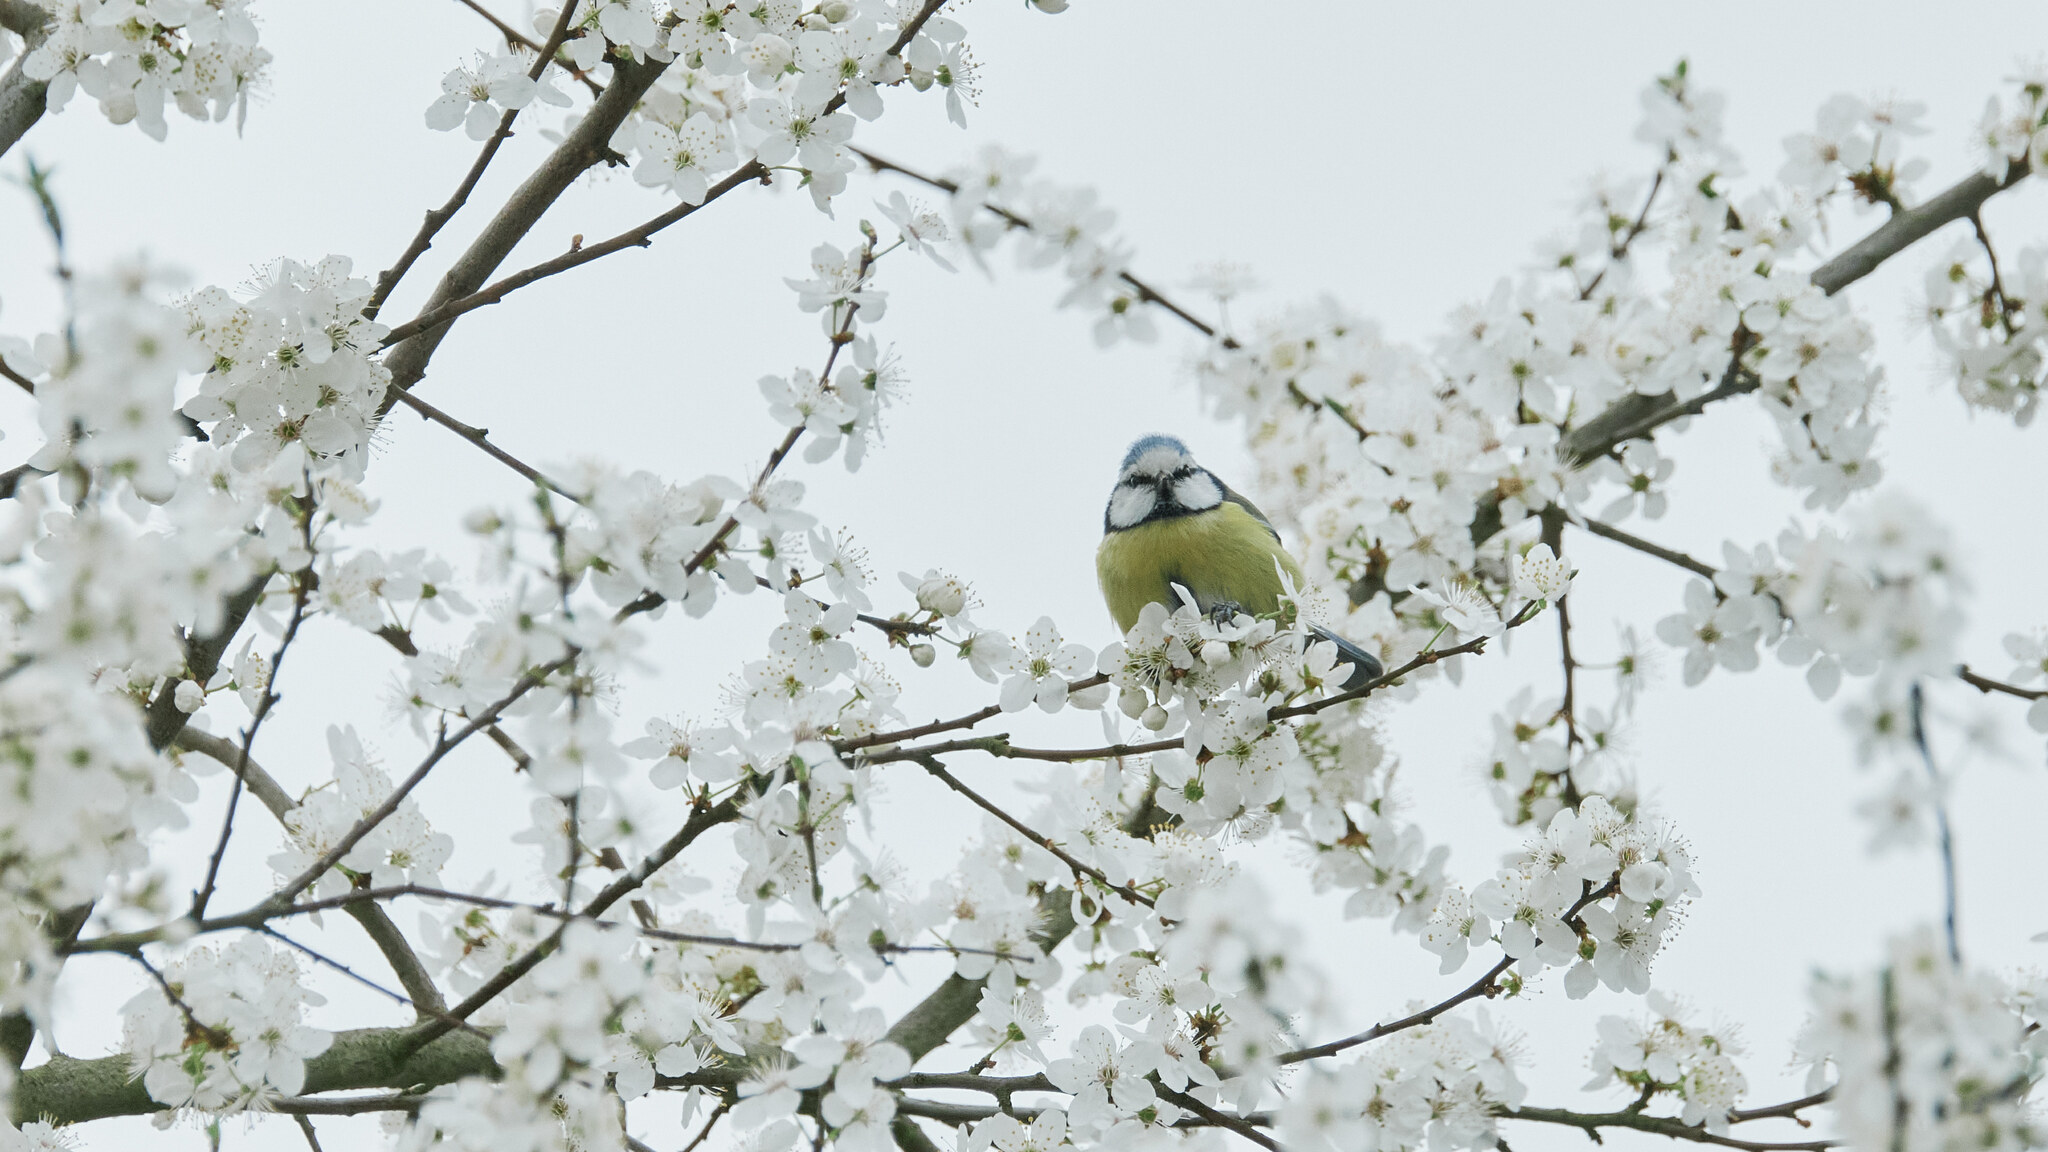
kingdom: Animalia
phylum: Chordata
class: Aves
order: Passeriformes
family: Paridae
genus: Cyanistes
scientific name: Cyanistes caeruleus
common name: Eurasian blue tit
